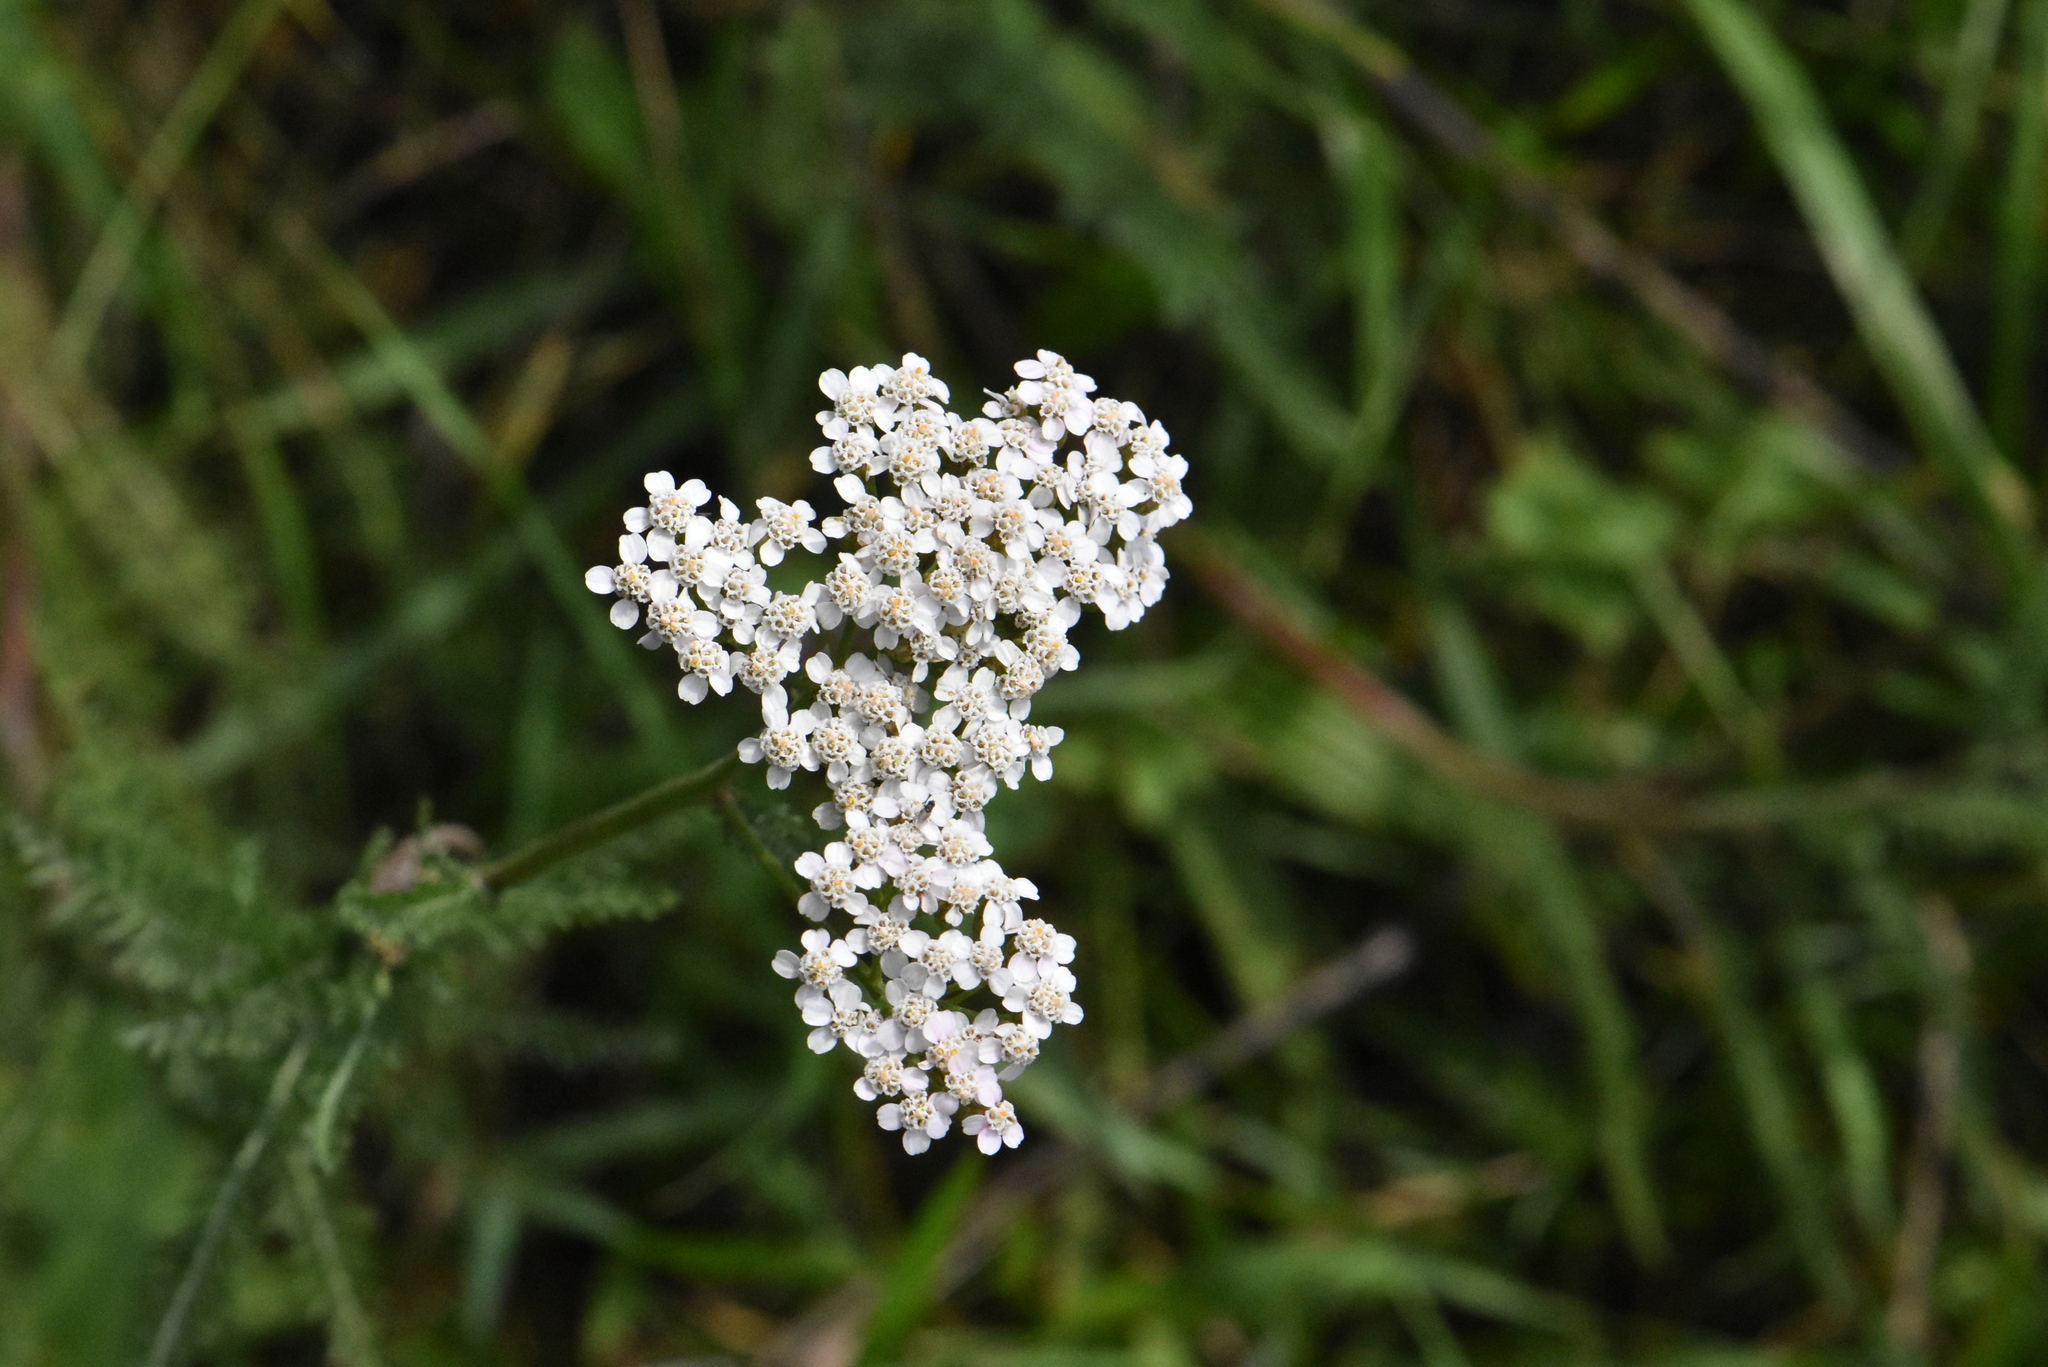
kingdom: Plantae
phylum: Tracheophyta
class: Magnoliopsida
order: Asterales
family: Asteraceae
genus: Achillea
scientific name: Achillea millefolium
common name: Yarrow
